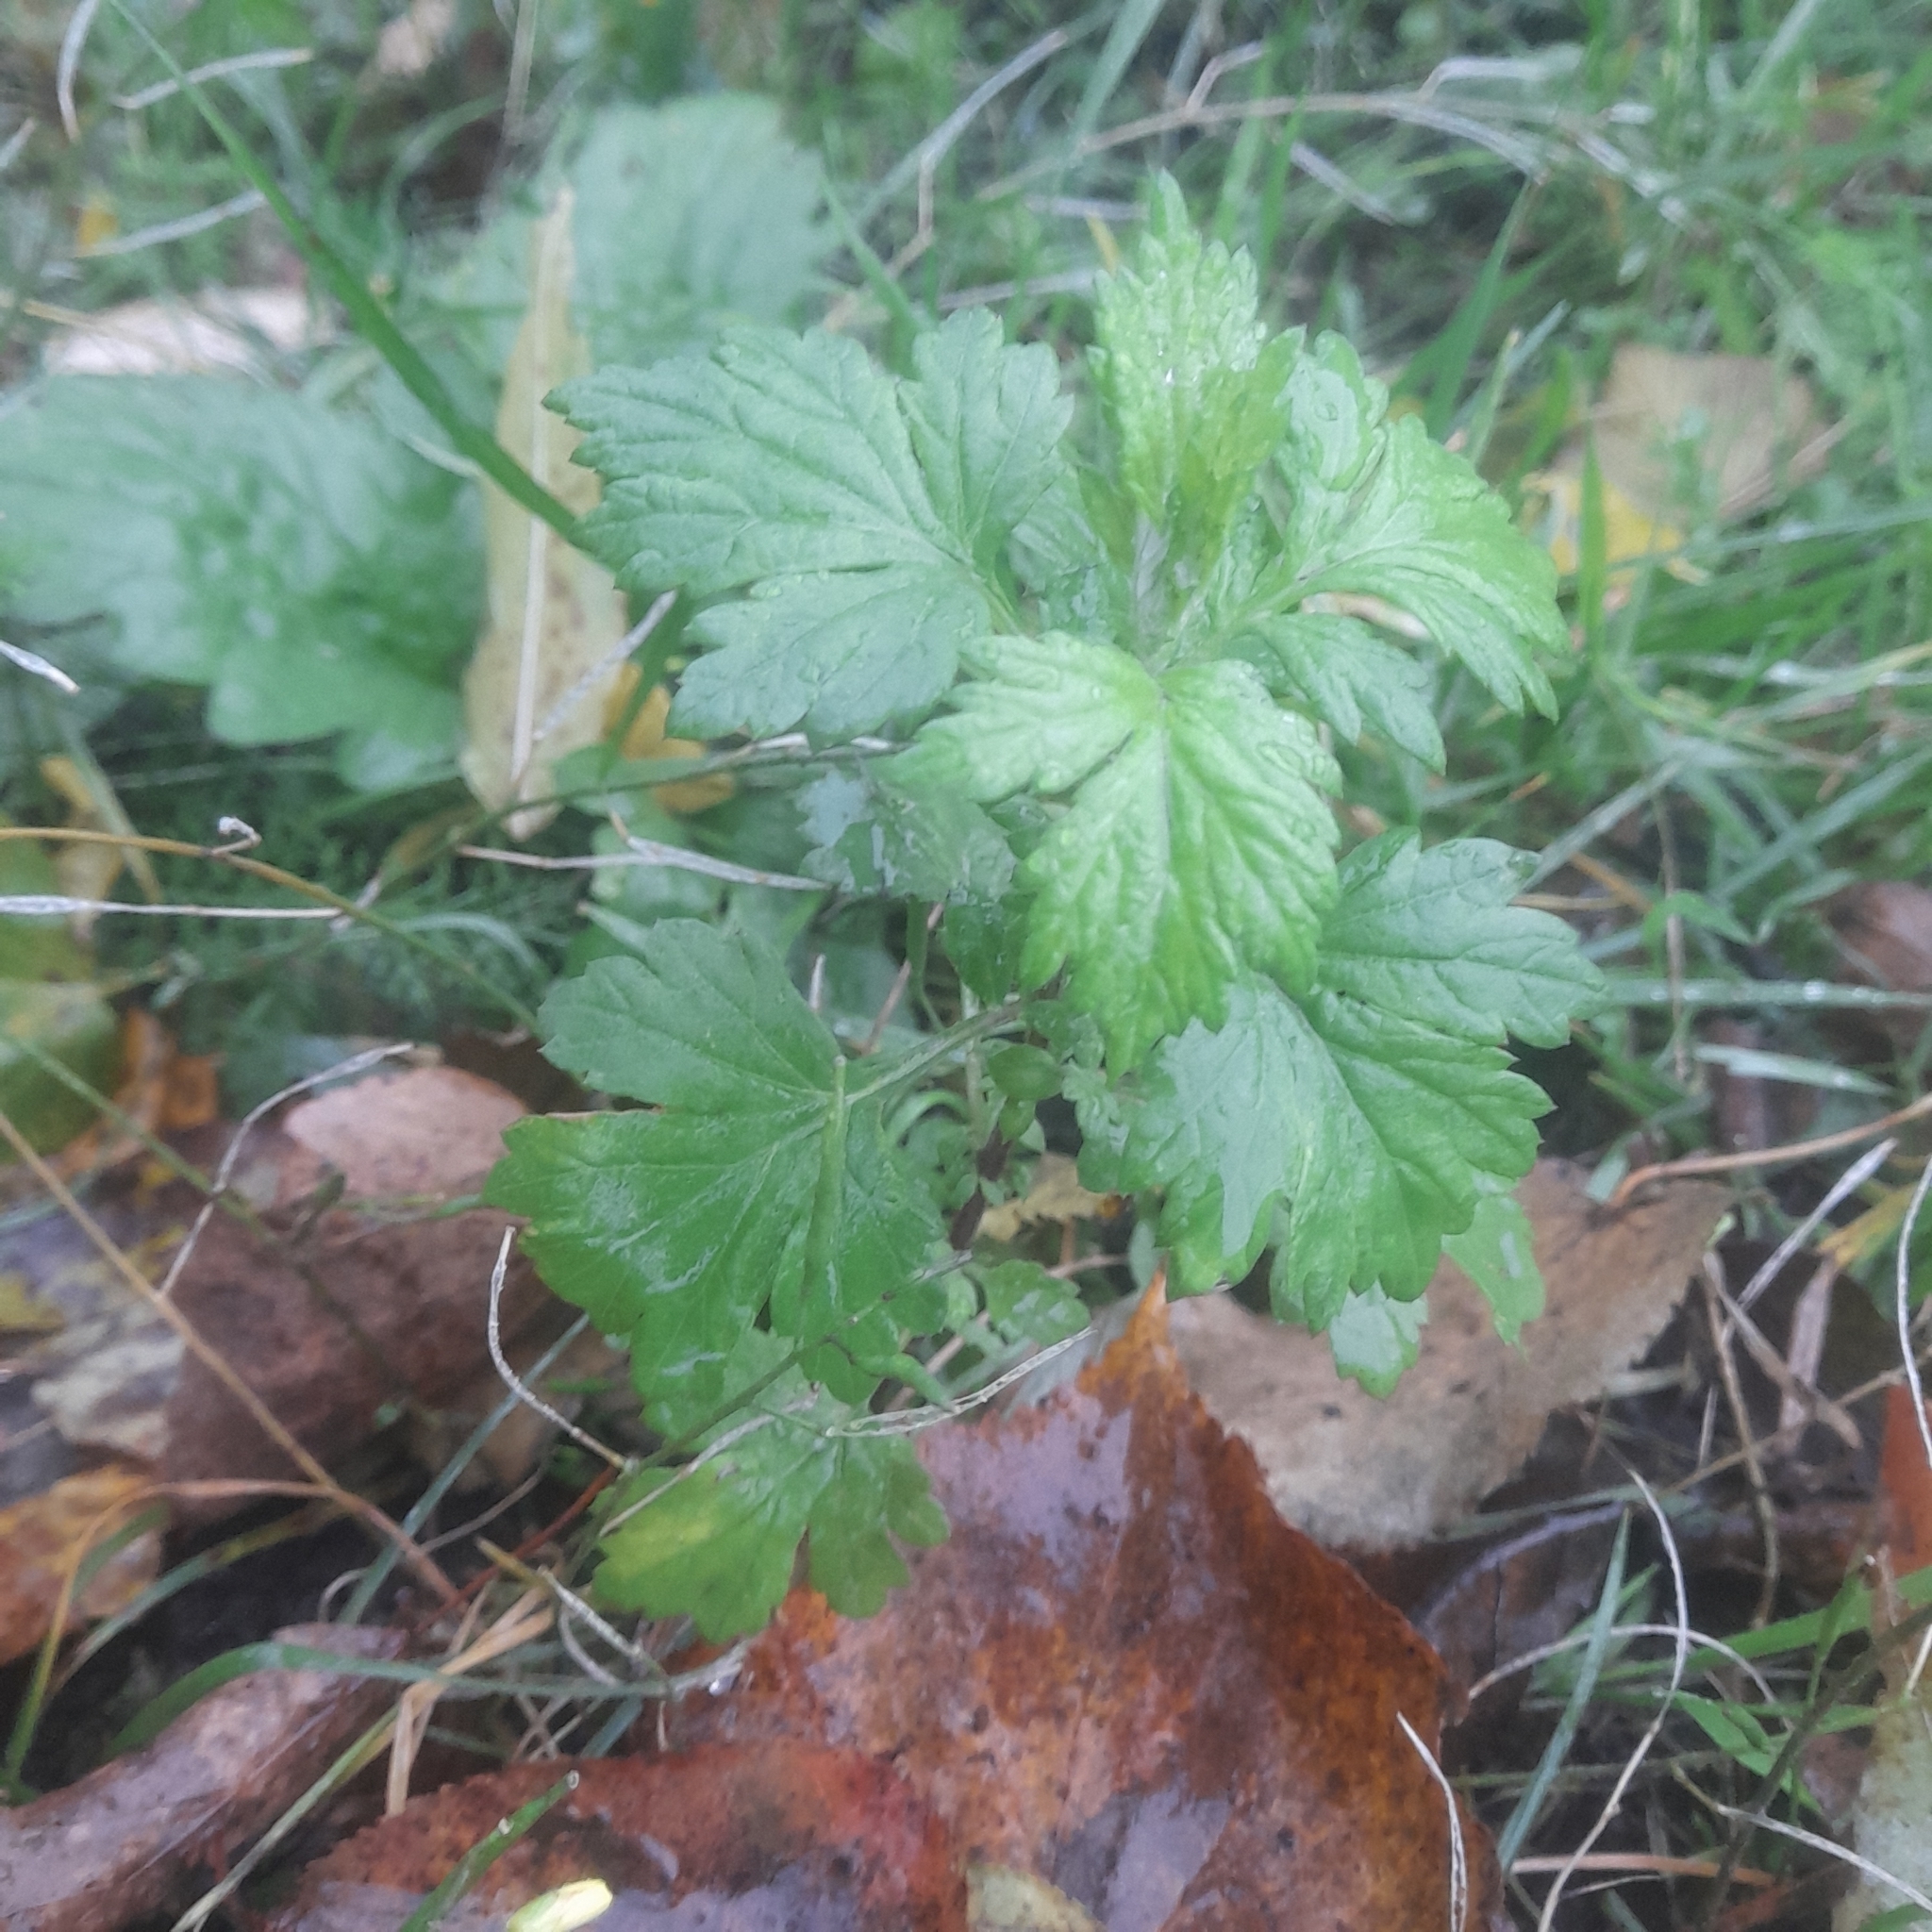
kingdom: Plantae
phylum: Tracheophyta
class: Magnoliopsida
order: Asterales
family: Asteraceae
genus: Artemisia
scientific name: Artemisia vulgaris
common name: Mugwort
